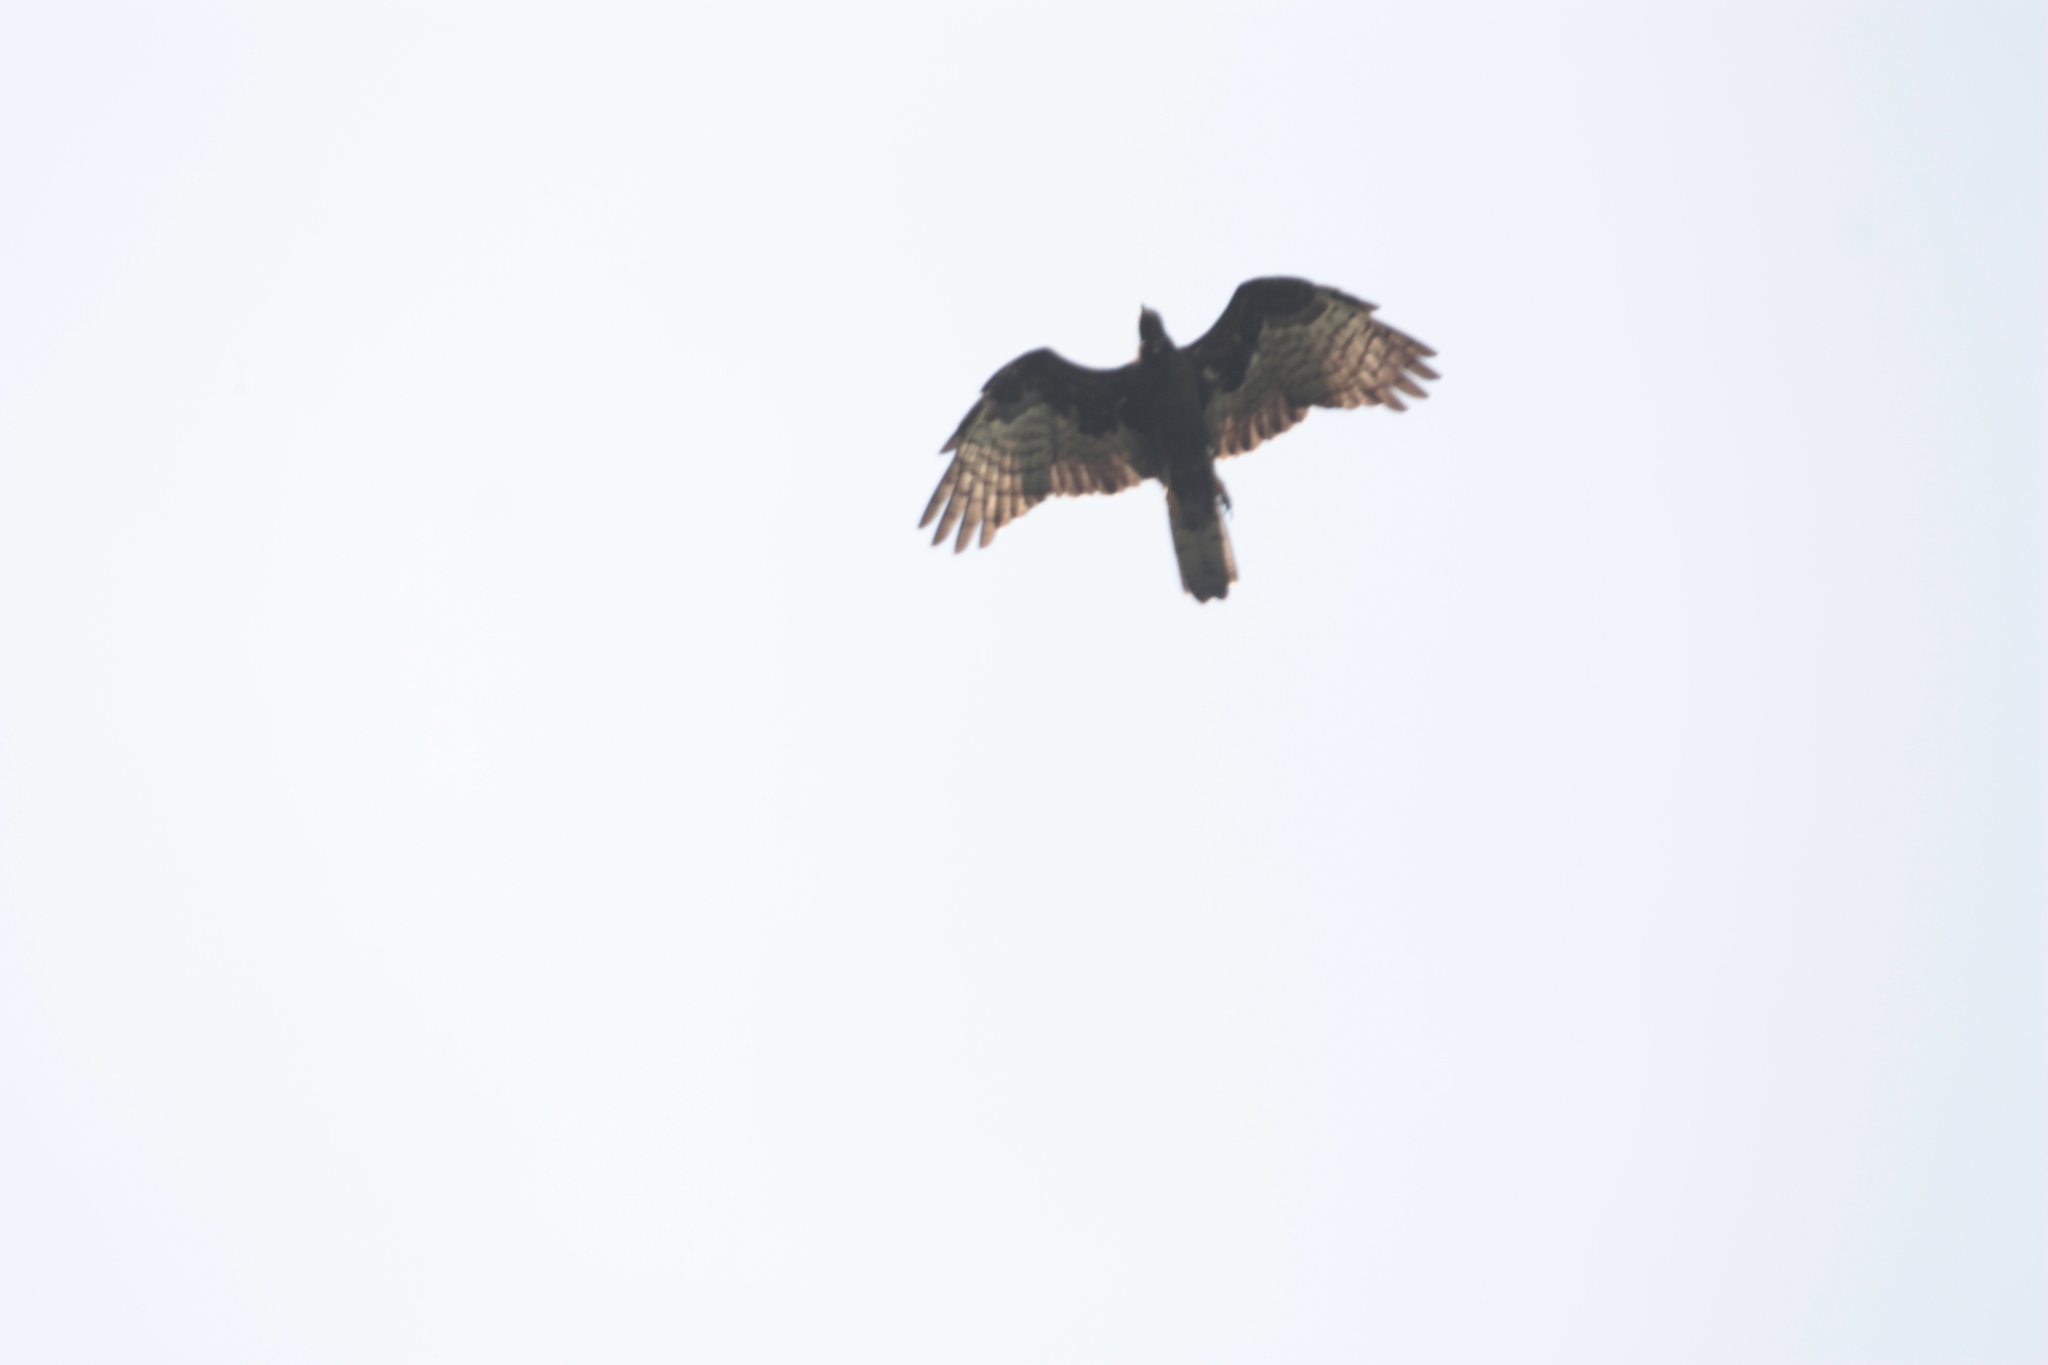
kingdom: Animalia
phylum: Chordata
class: Aves
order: Accipitriformes
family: Accipitridae
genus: Pernis
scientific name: Pernis ptilorhynchus
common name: Crested honey buzzard
